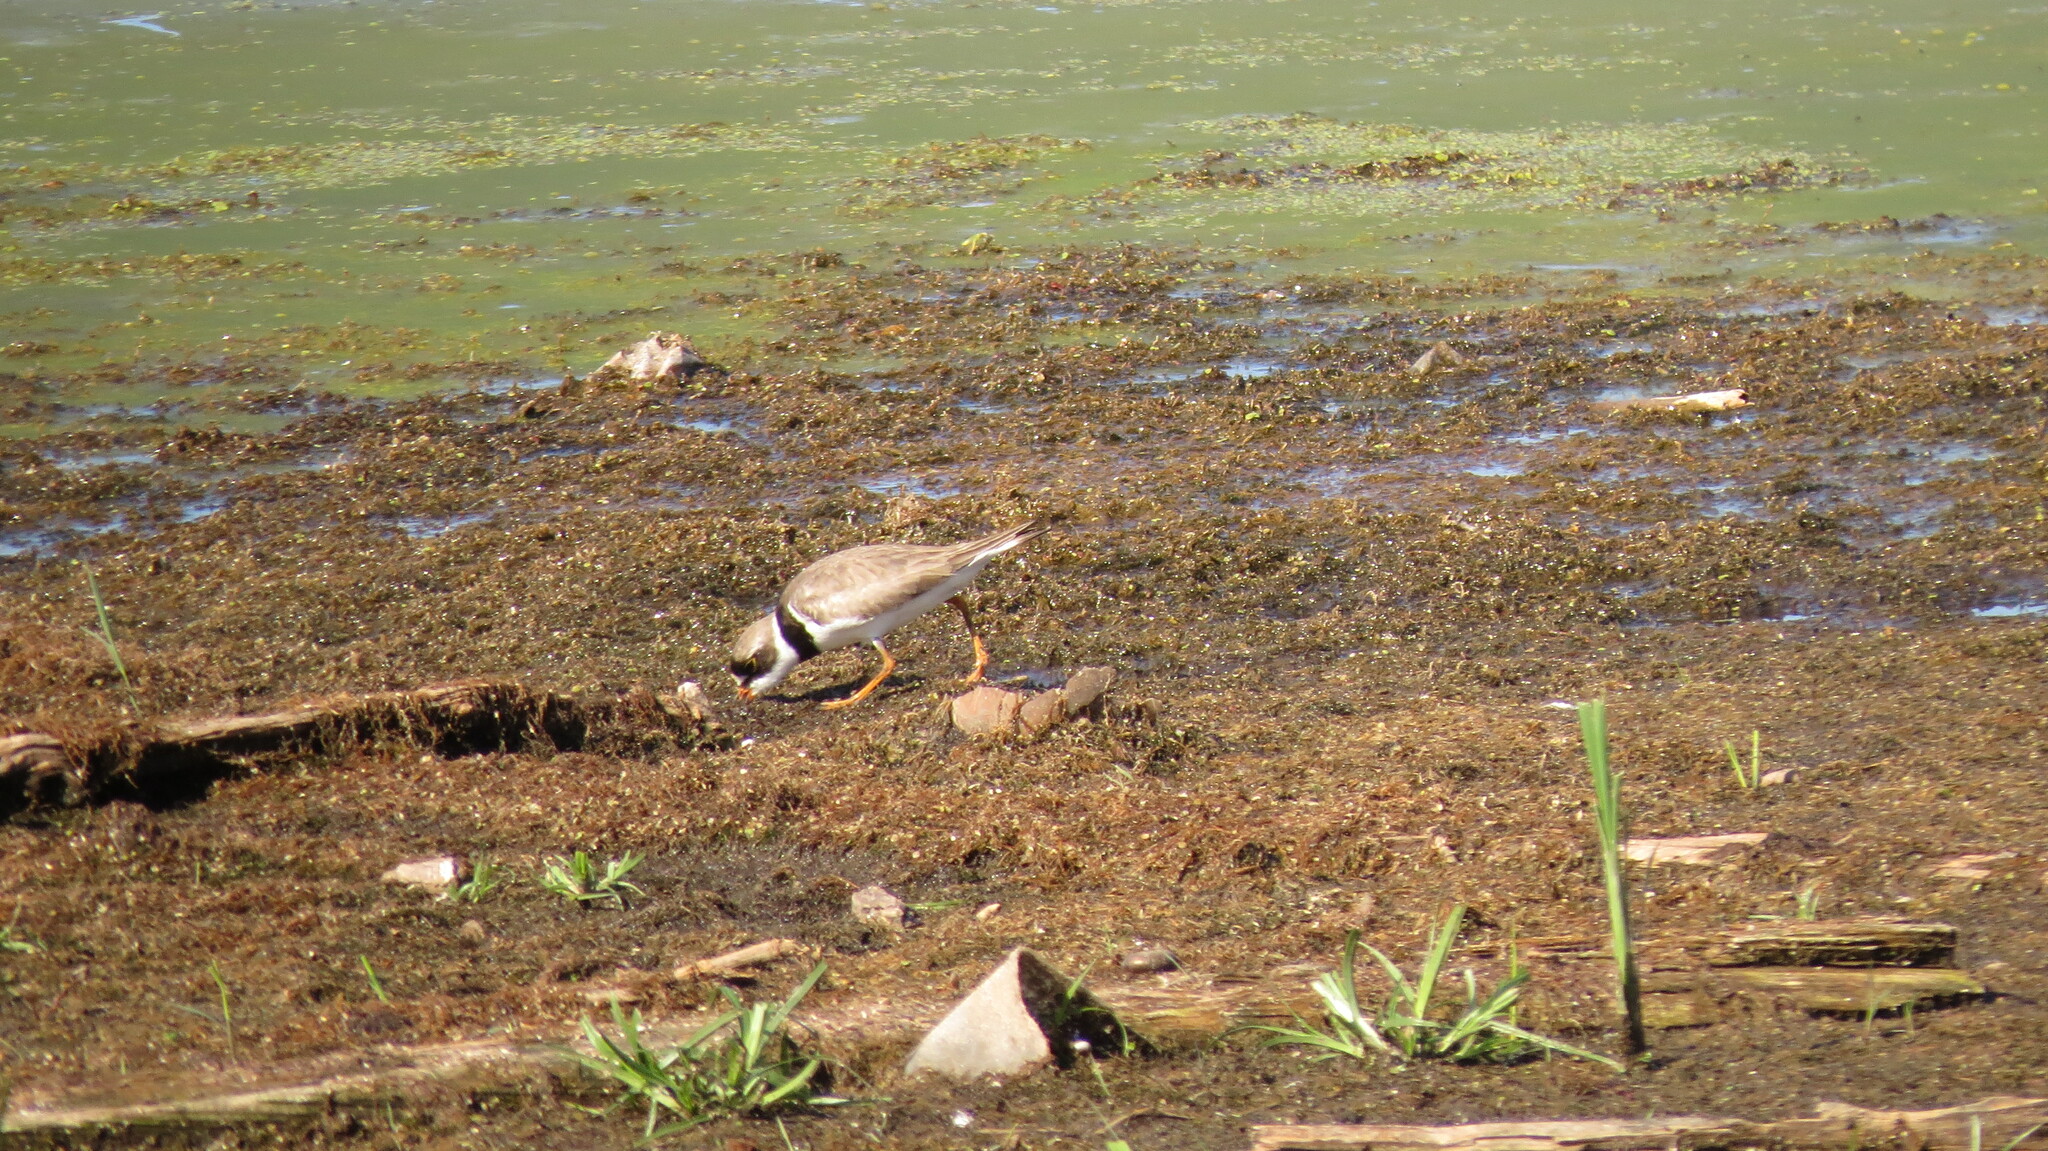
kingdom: Animalia
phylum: Chordata
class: Aves
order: Charadriiformes
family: Charadriidae
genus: Charadrius
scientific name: Charadrius semipalmatus
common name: Semipalmated plover
